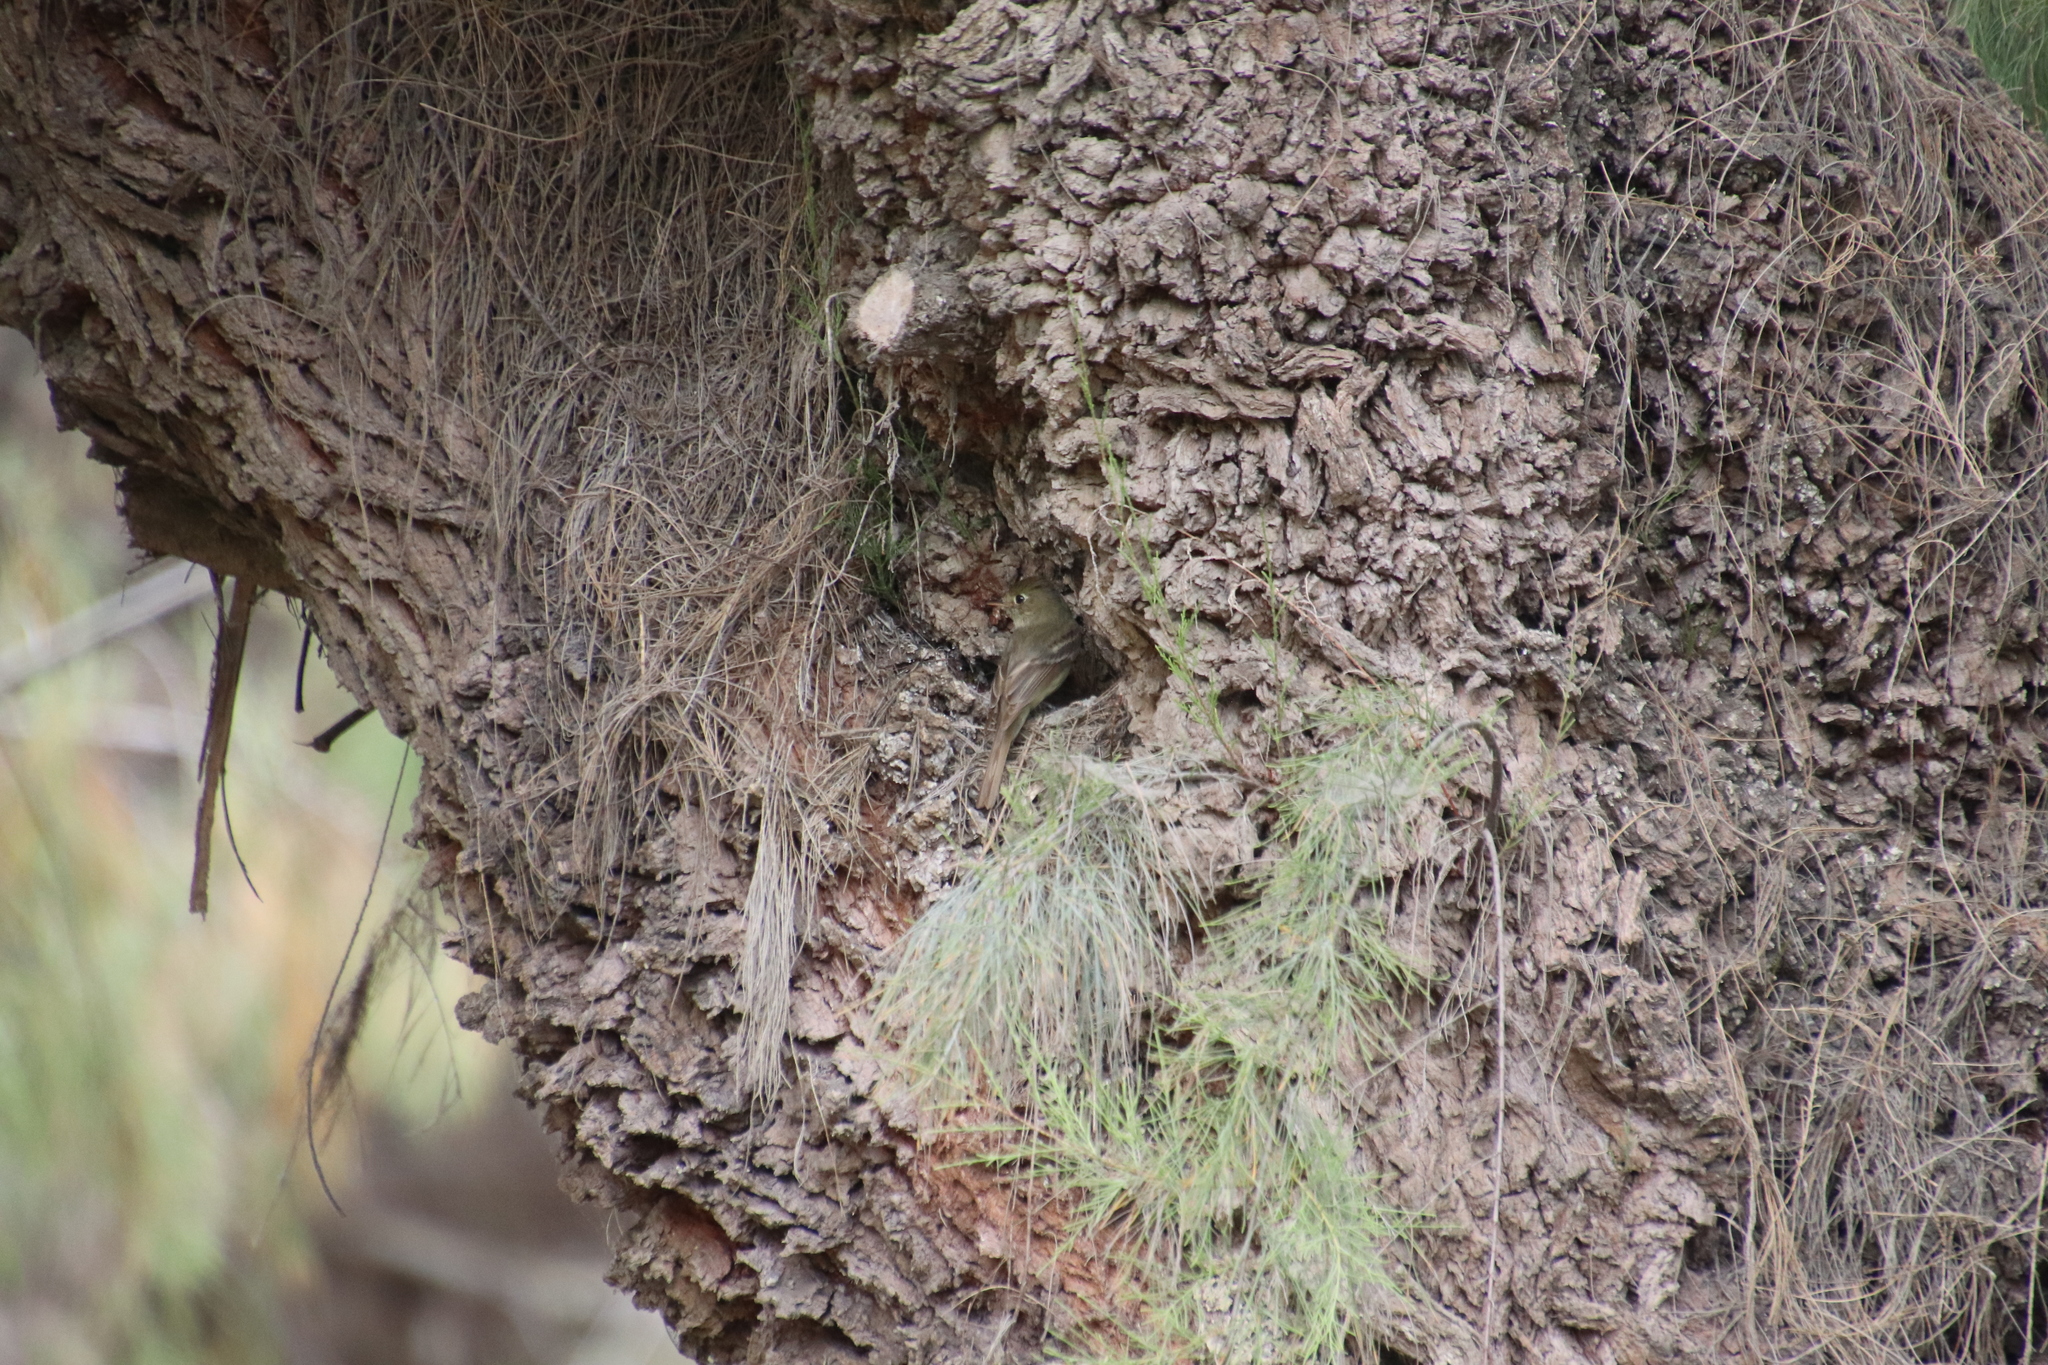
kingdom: Animalia
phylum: Chordata
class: Aves
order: Passeriformes
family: Tyrannidae
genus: Empidonax
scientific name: Empidonax difficilis
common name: Pacific-slope flycatcher
